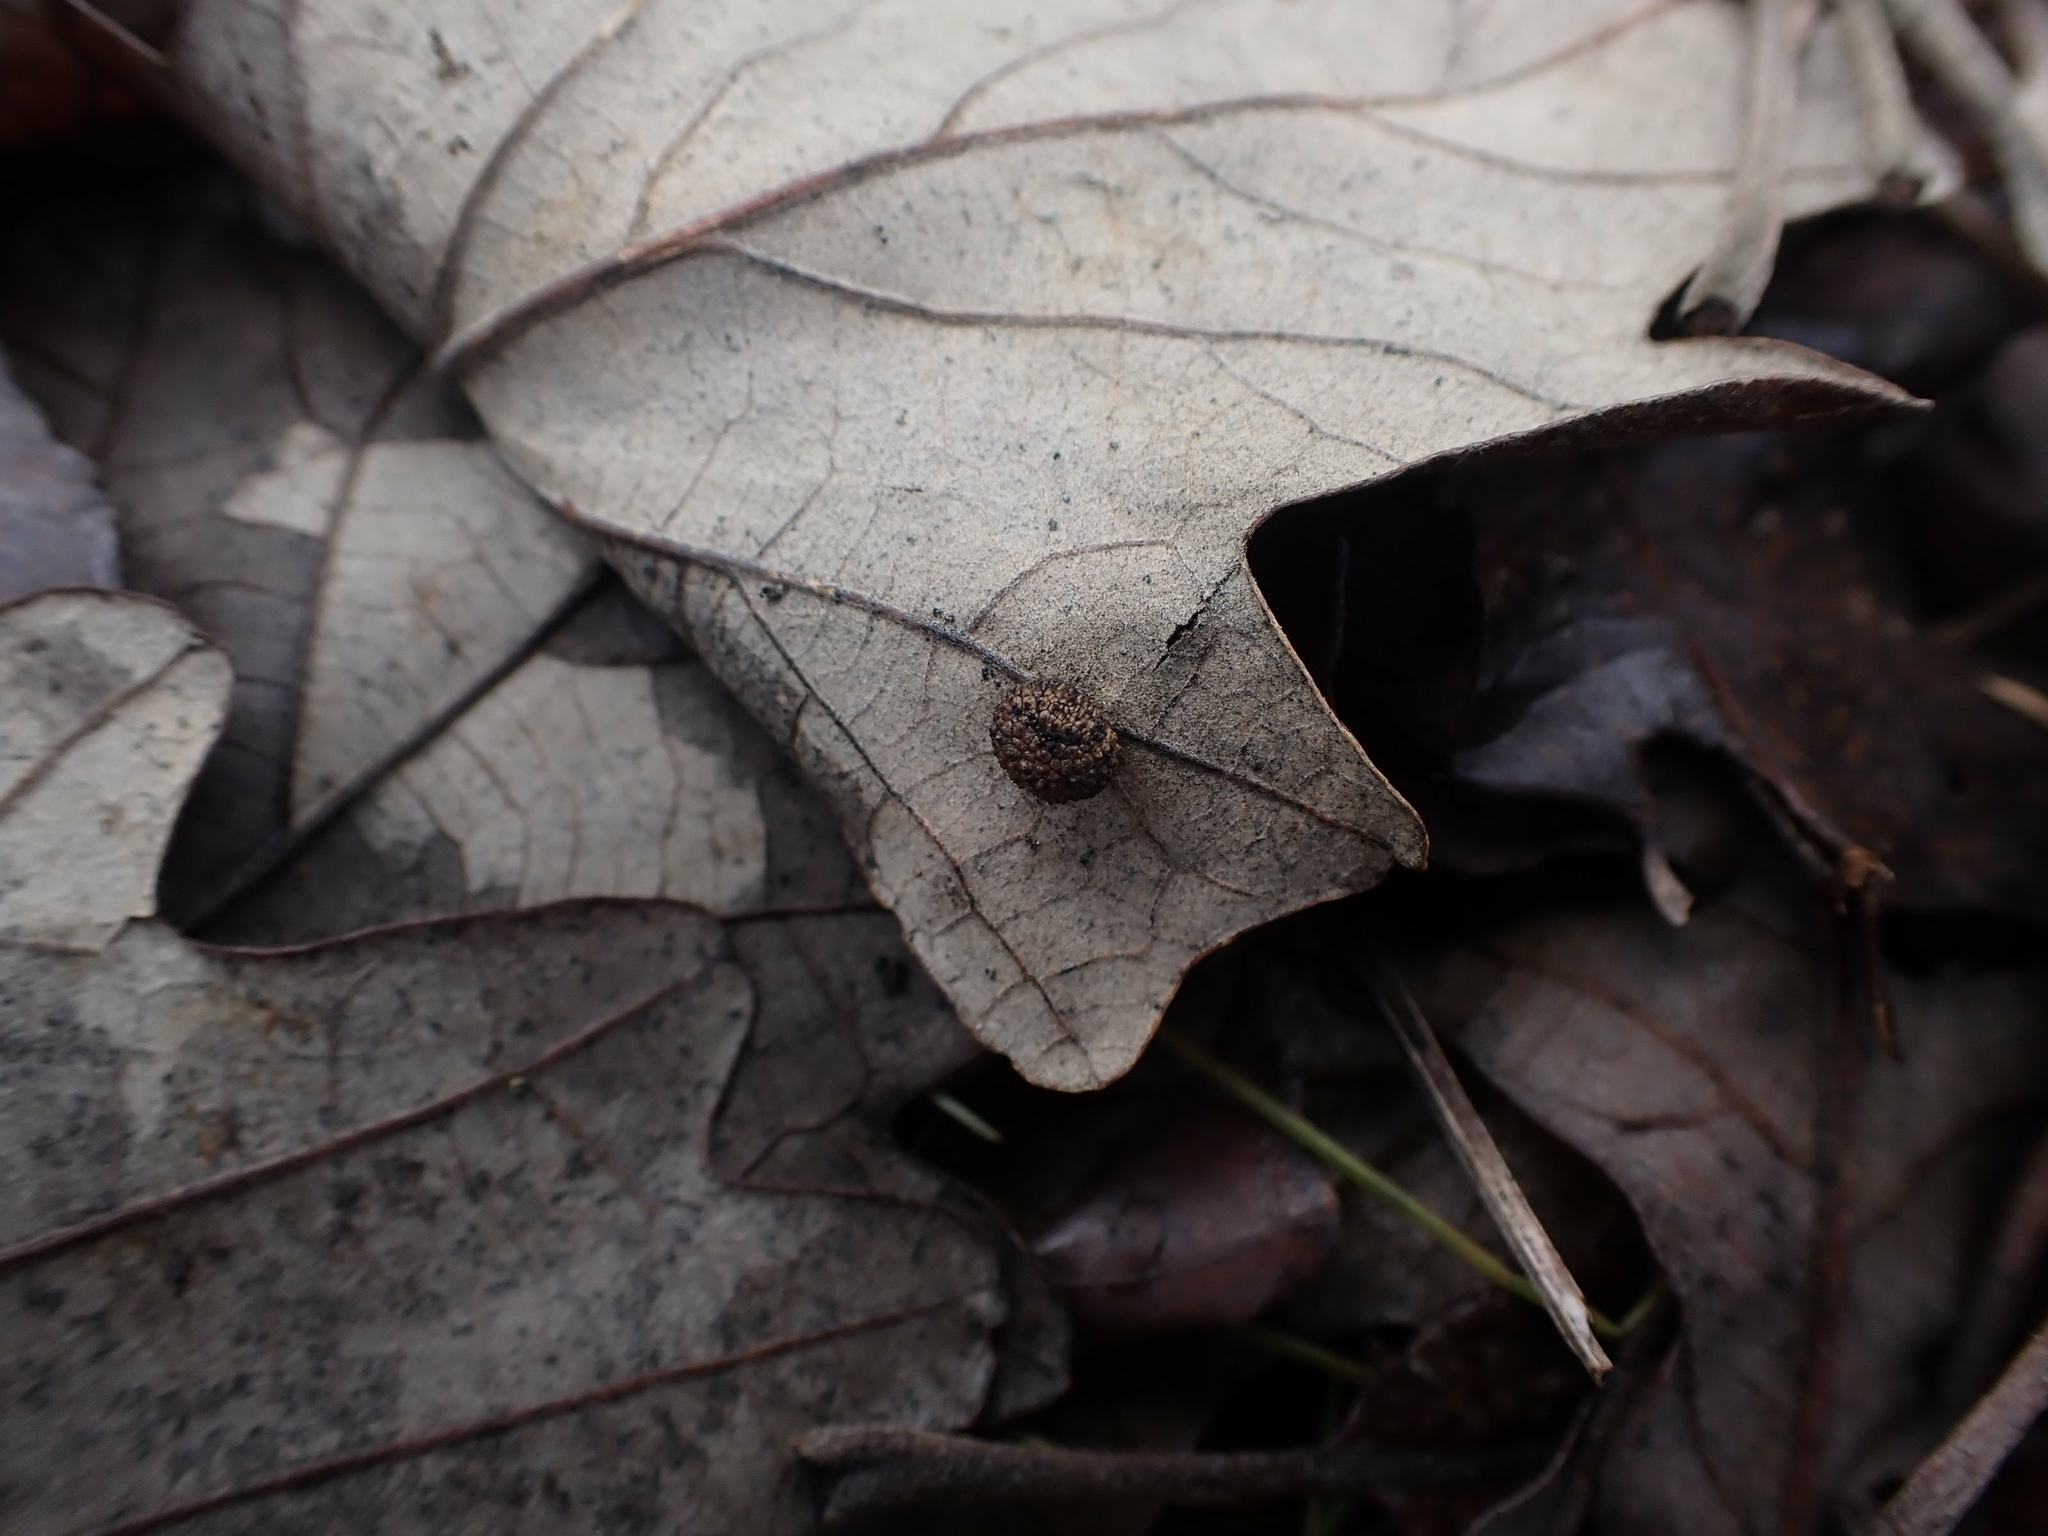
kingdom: Animalia
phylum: Arthropoda
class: Insecta
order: Hymenoptera
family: Cynipidae
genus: Acraspis
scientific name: Acraspis quercushirta
